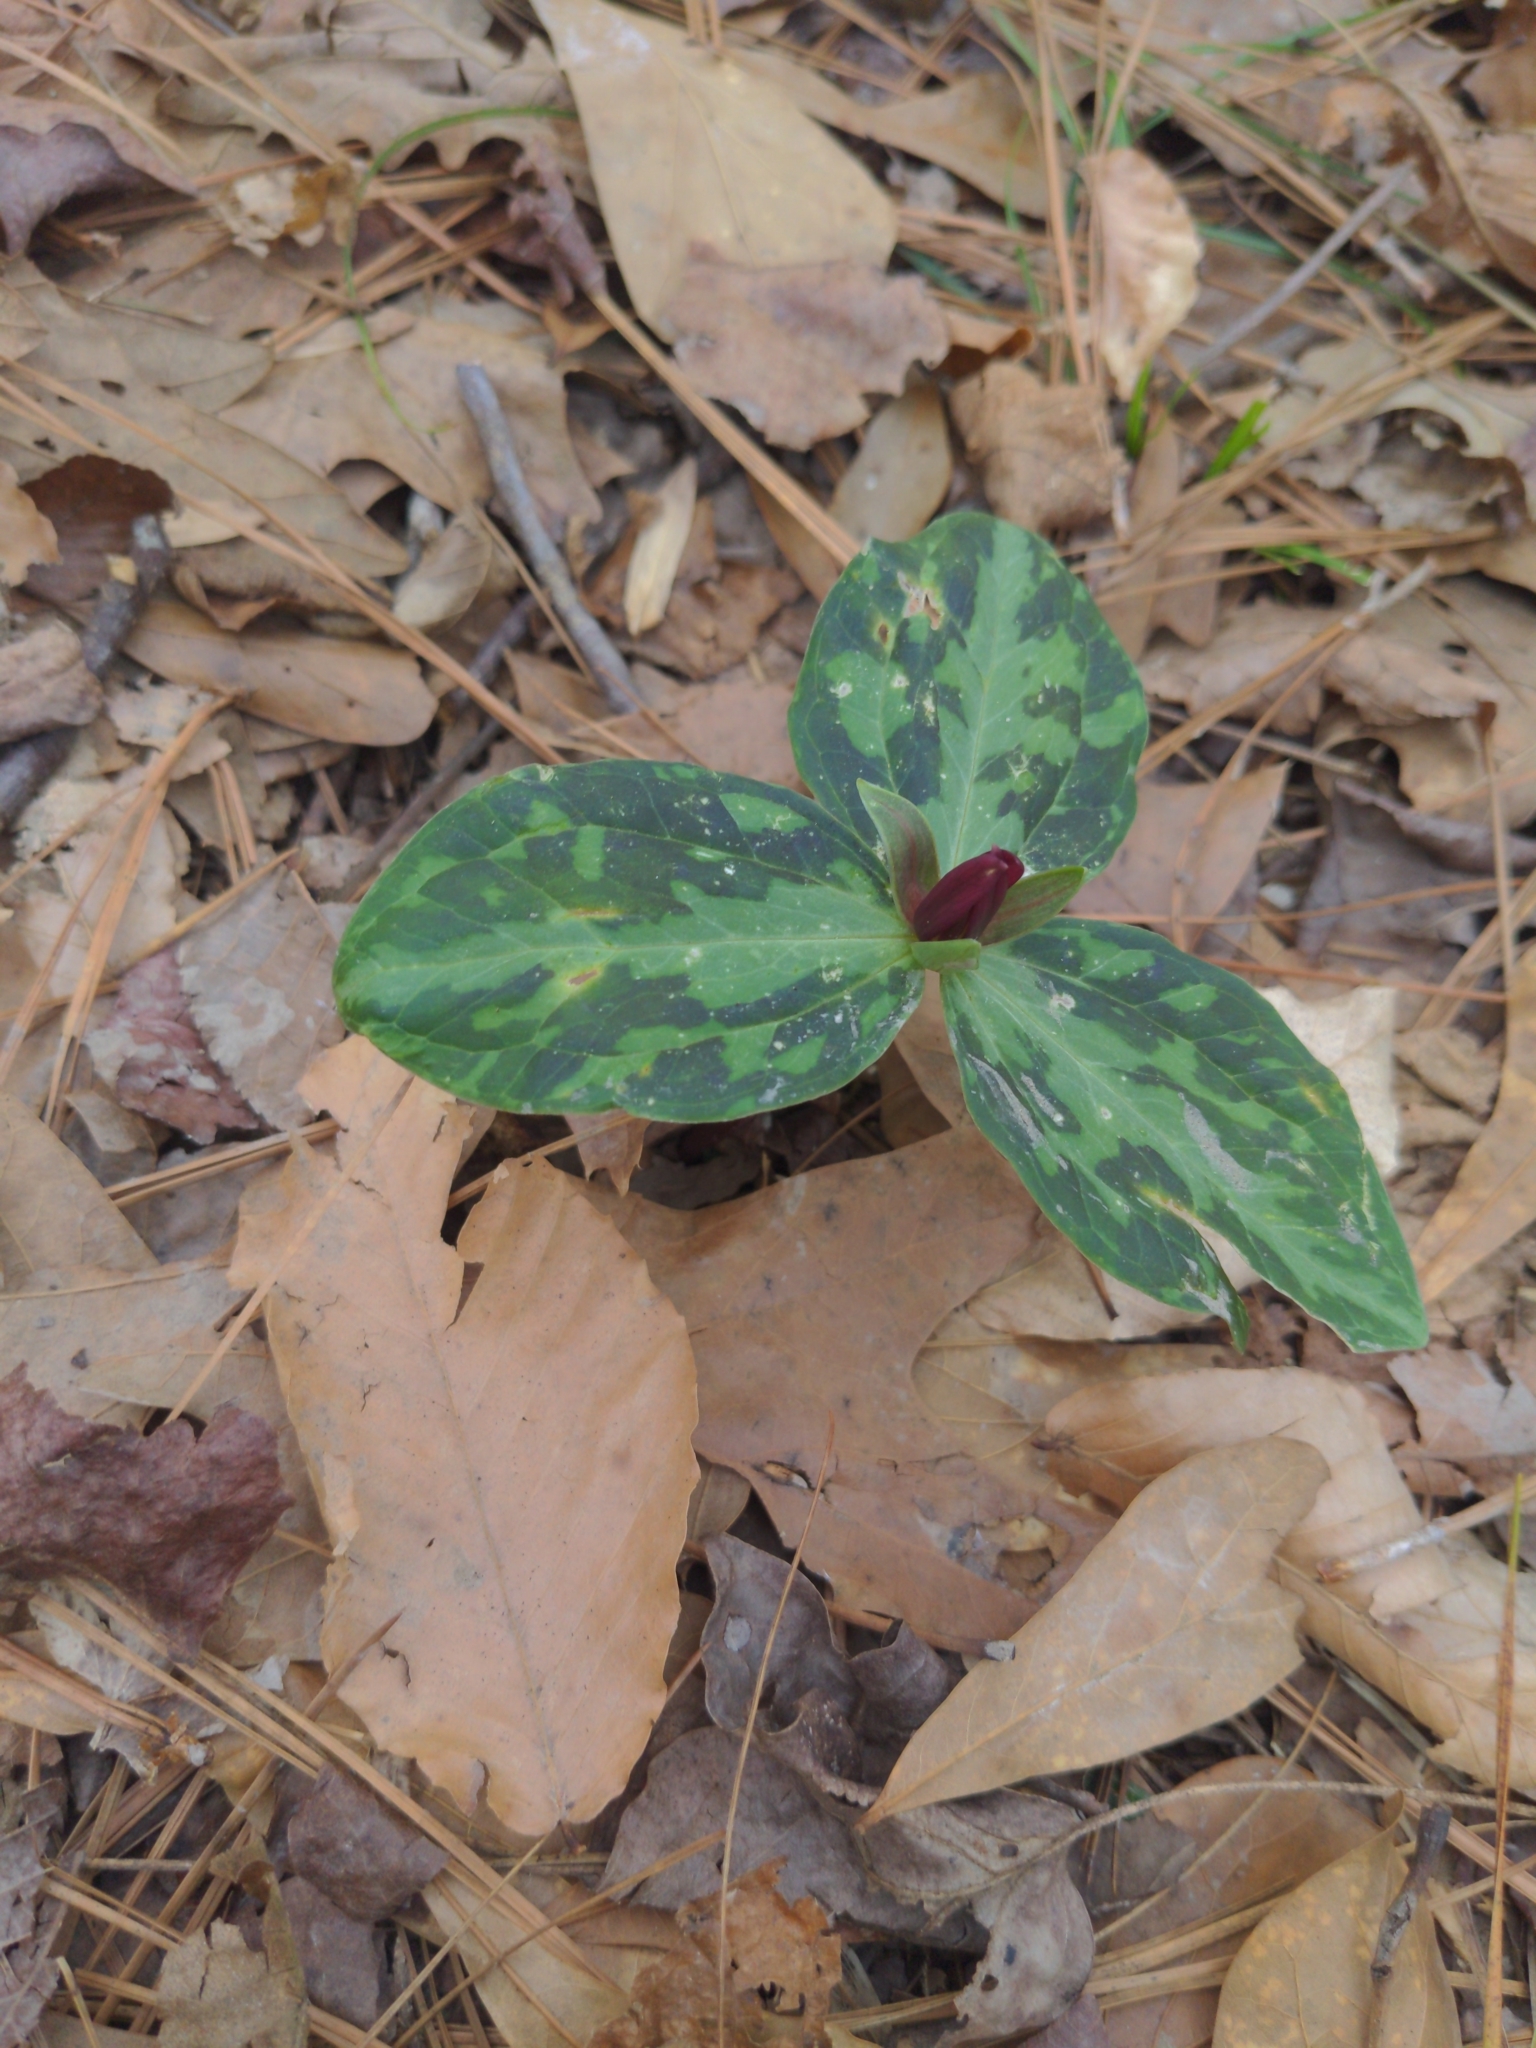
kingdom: Plantae
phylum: Tracheophyta
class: Liliopsida
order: Liliales
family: Melanthiaceae
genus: Trillium
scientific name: Trillium foetidissimum
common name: Mississippi river trillium
